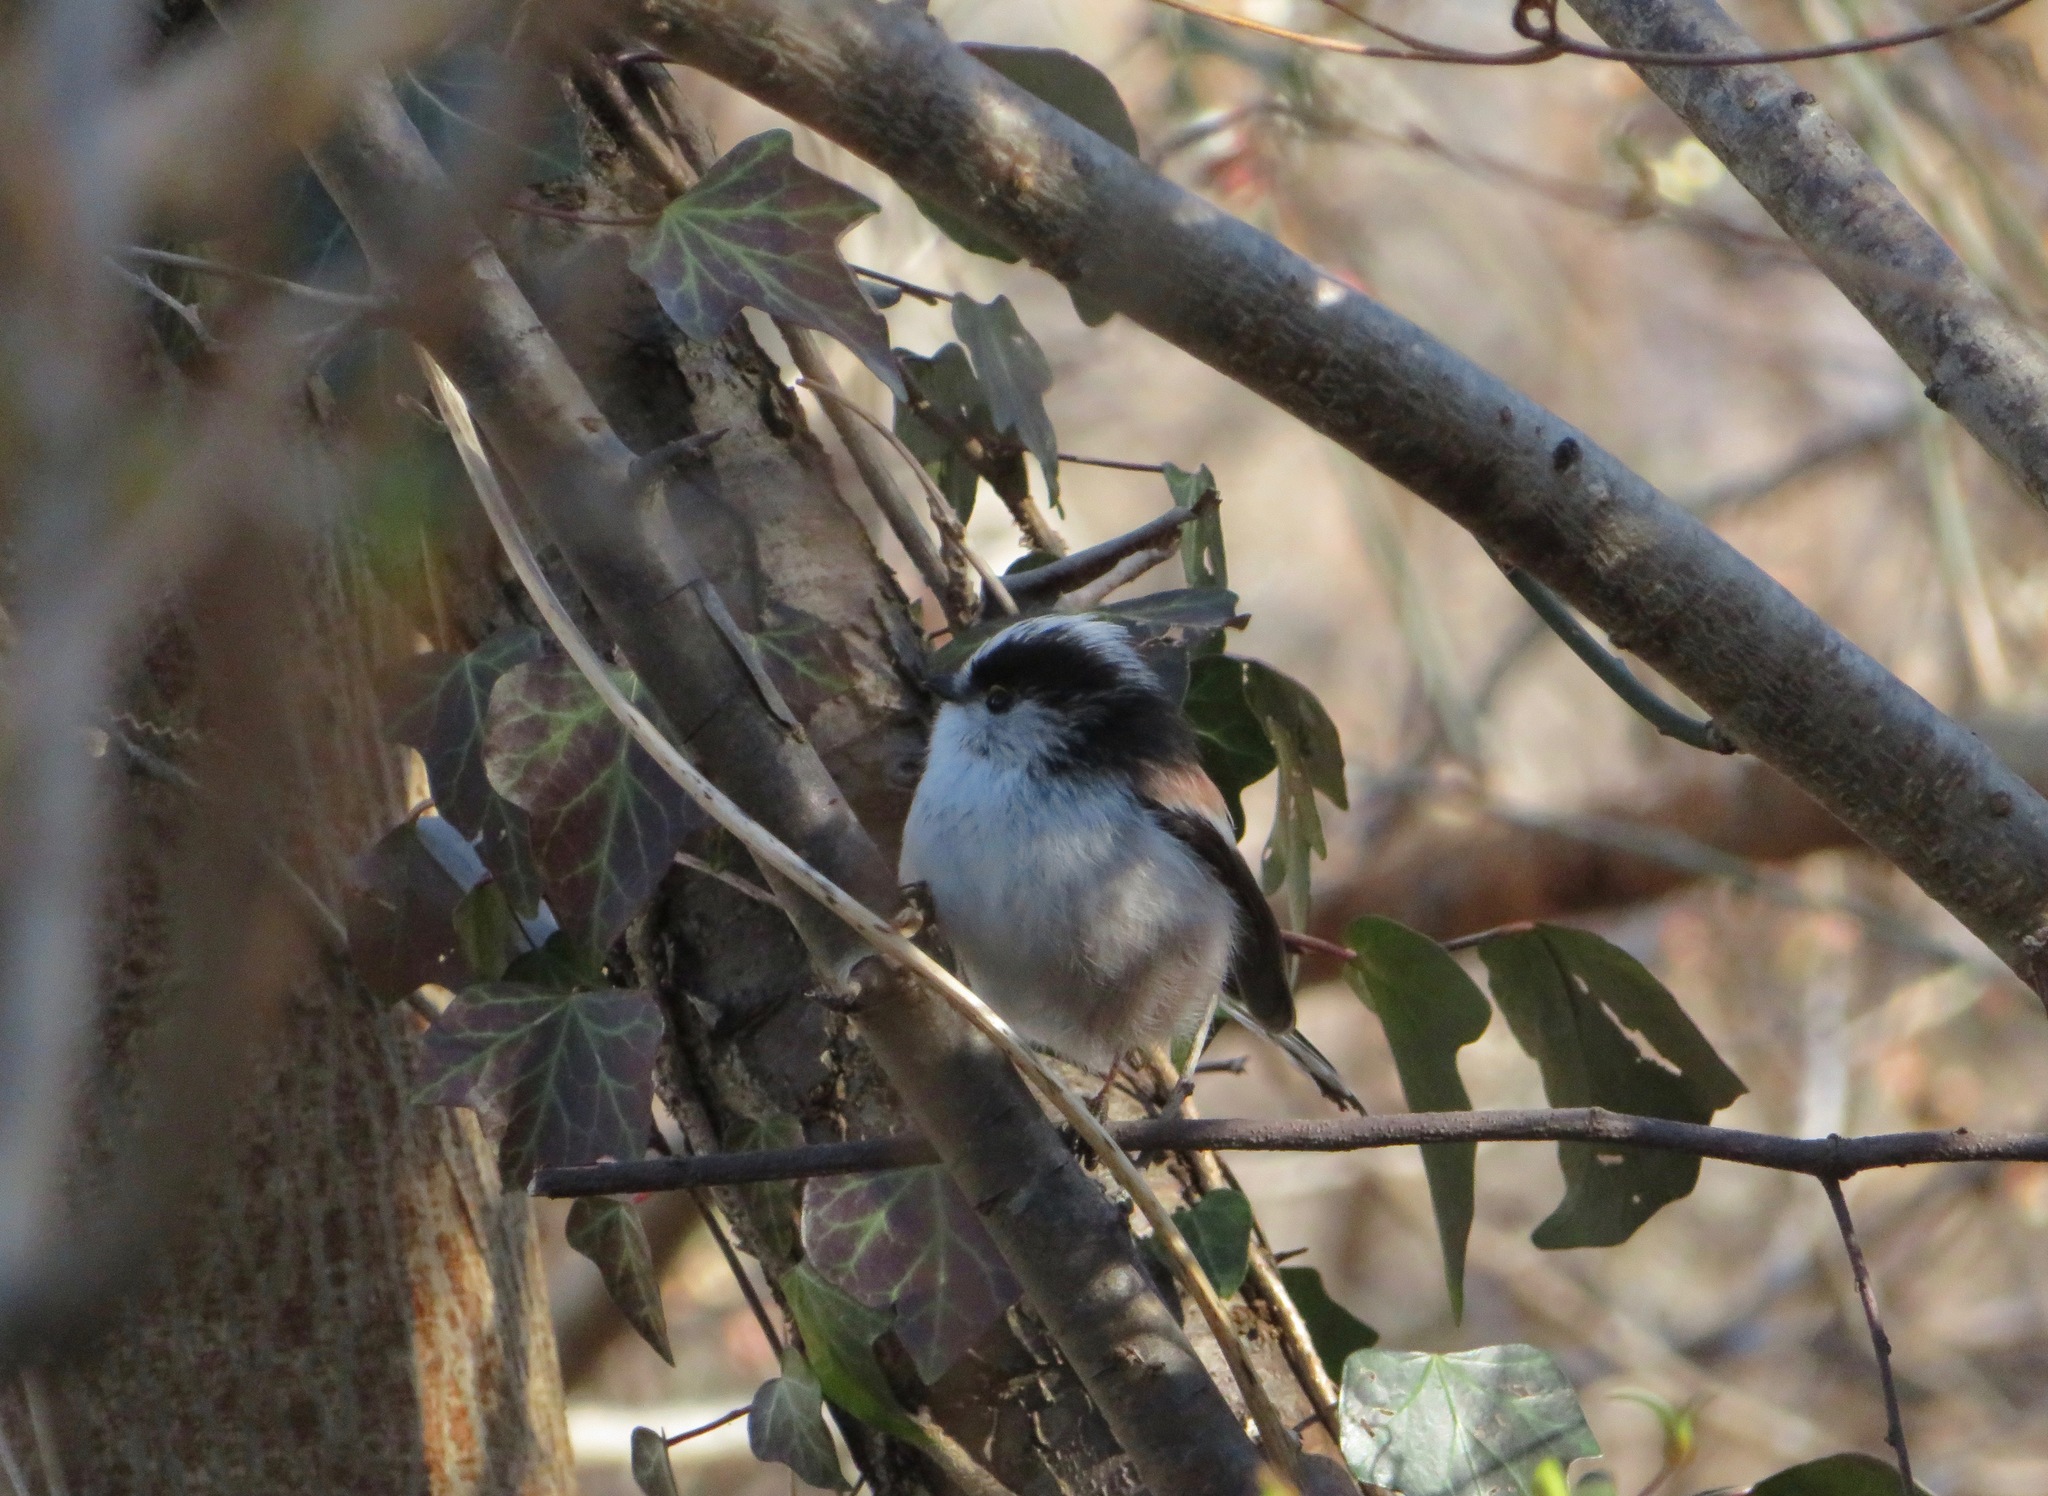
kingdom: Animalia
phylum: Chordata
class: Aves
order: Passeriformes
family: Aegithalidae
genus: Aegithalos
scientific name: Aegithalos caudatus
